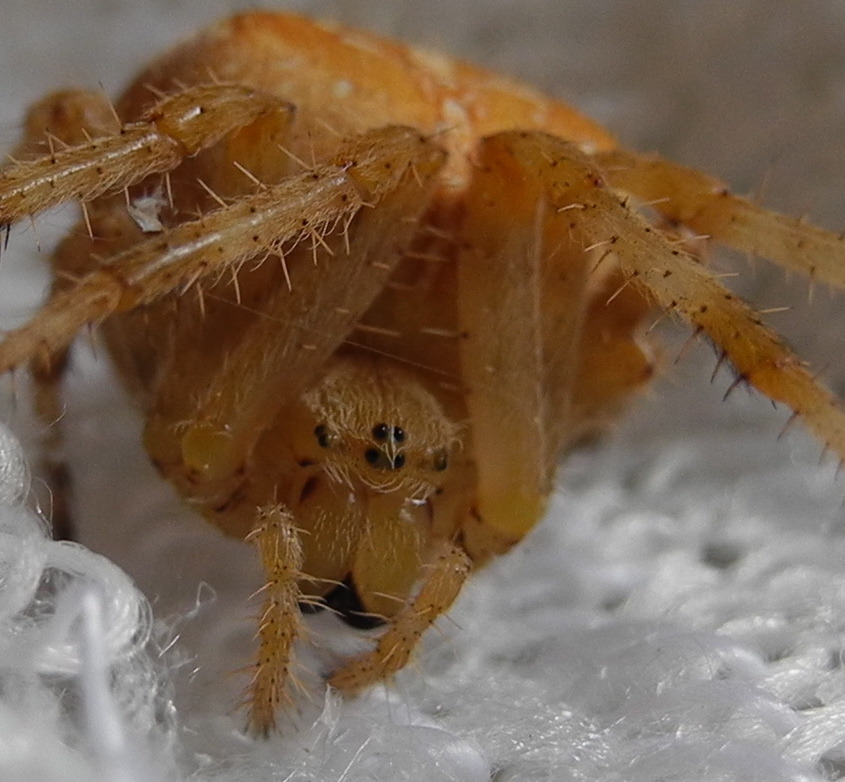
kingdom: Animalia
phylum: Arthropoda
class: Arachnida
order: Araneae
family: Araneidae
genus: Araneus
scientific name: Araneus diadematus
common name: Cross orbweaver
